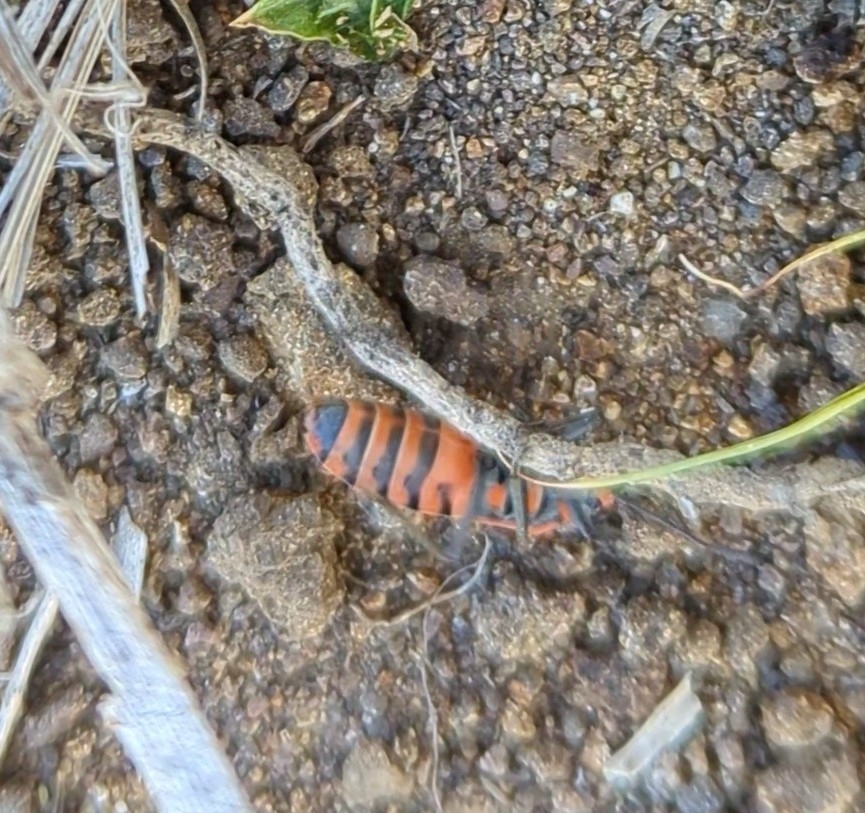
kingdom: Animalia
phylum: Arthropoda
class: Insecta
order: Hemiptera
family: Lygaeidae
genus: Spilostethus
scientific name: Spilostethus hospes
